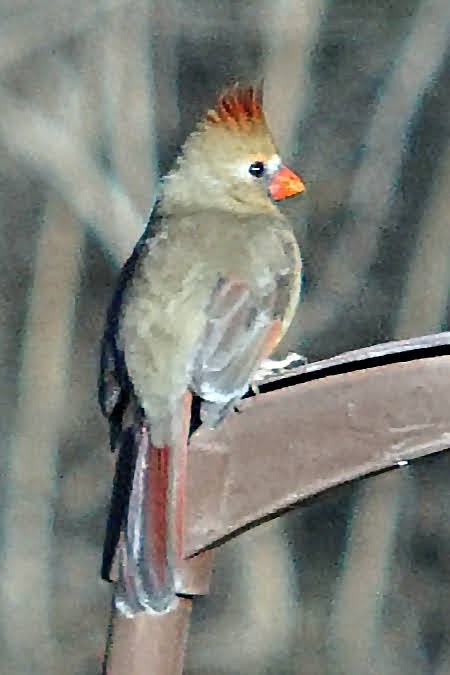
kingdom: Animalia
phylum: Chordata
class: Aves
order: Passeriformes
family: Cardinalidae
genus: Cardinalis
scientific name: Cardinalis cardinalis
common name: Northern cardinal
